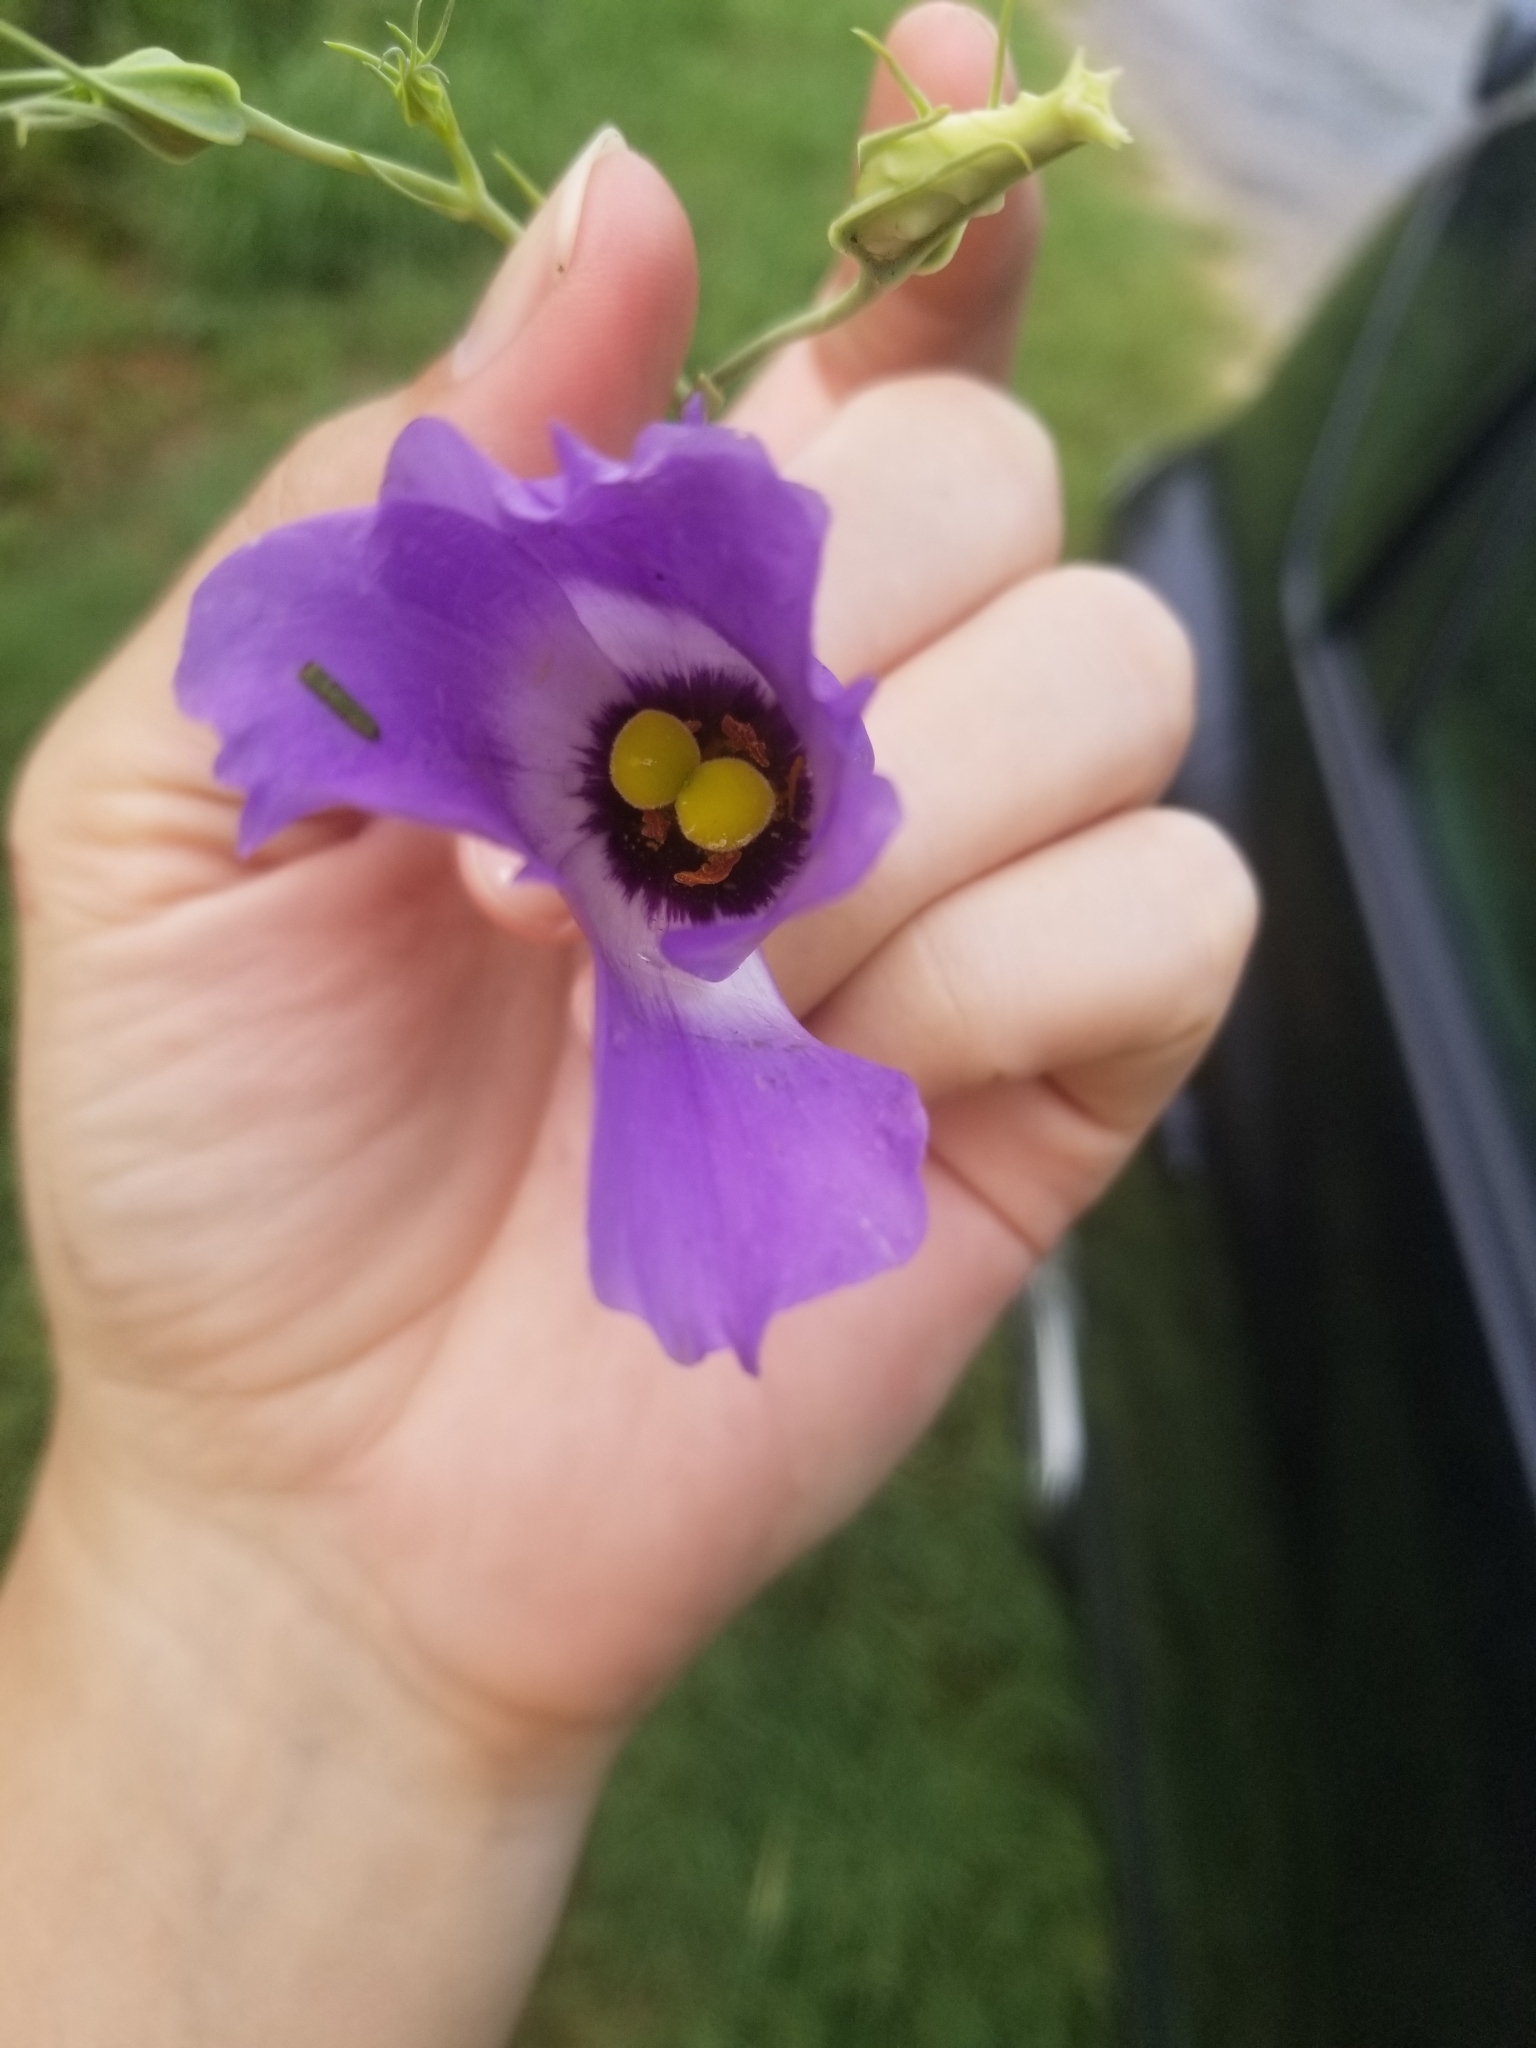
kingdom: Plantae
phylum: Tracheophyta
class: Magnoliopsida
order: Gentianales
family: Gentianaceae
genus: Eustoma
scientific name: Eustoma exaltatum
